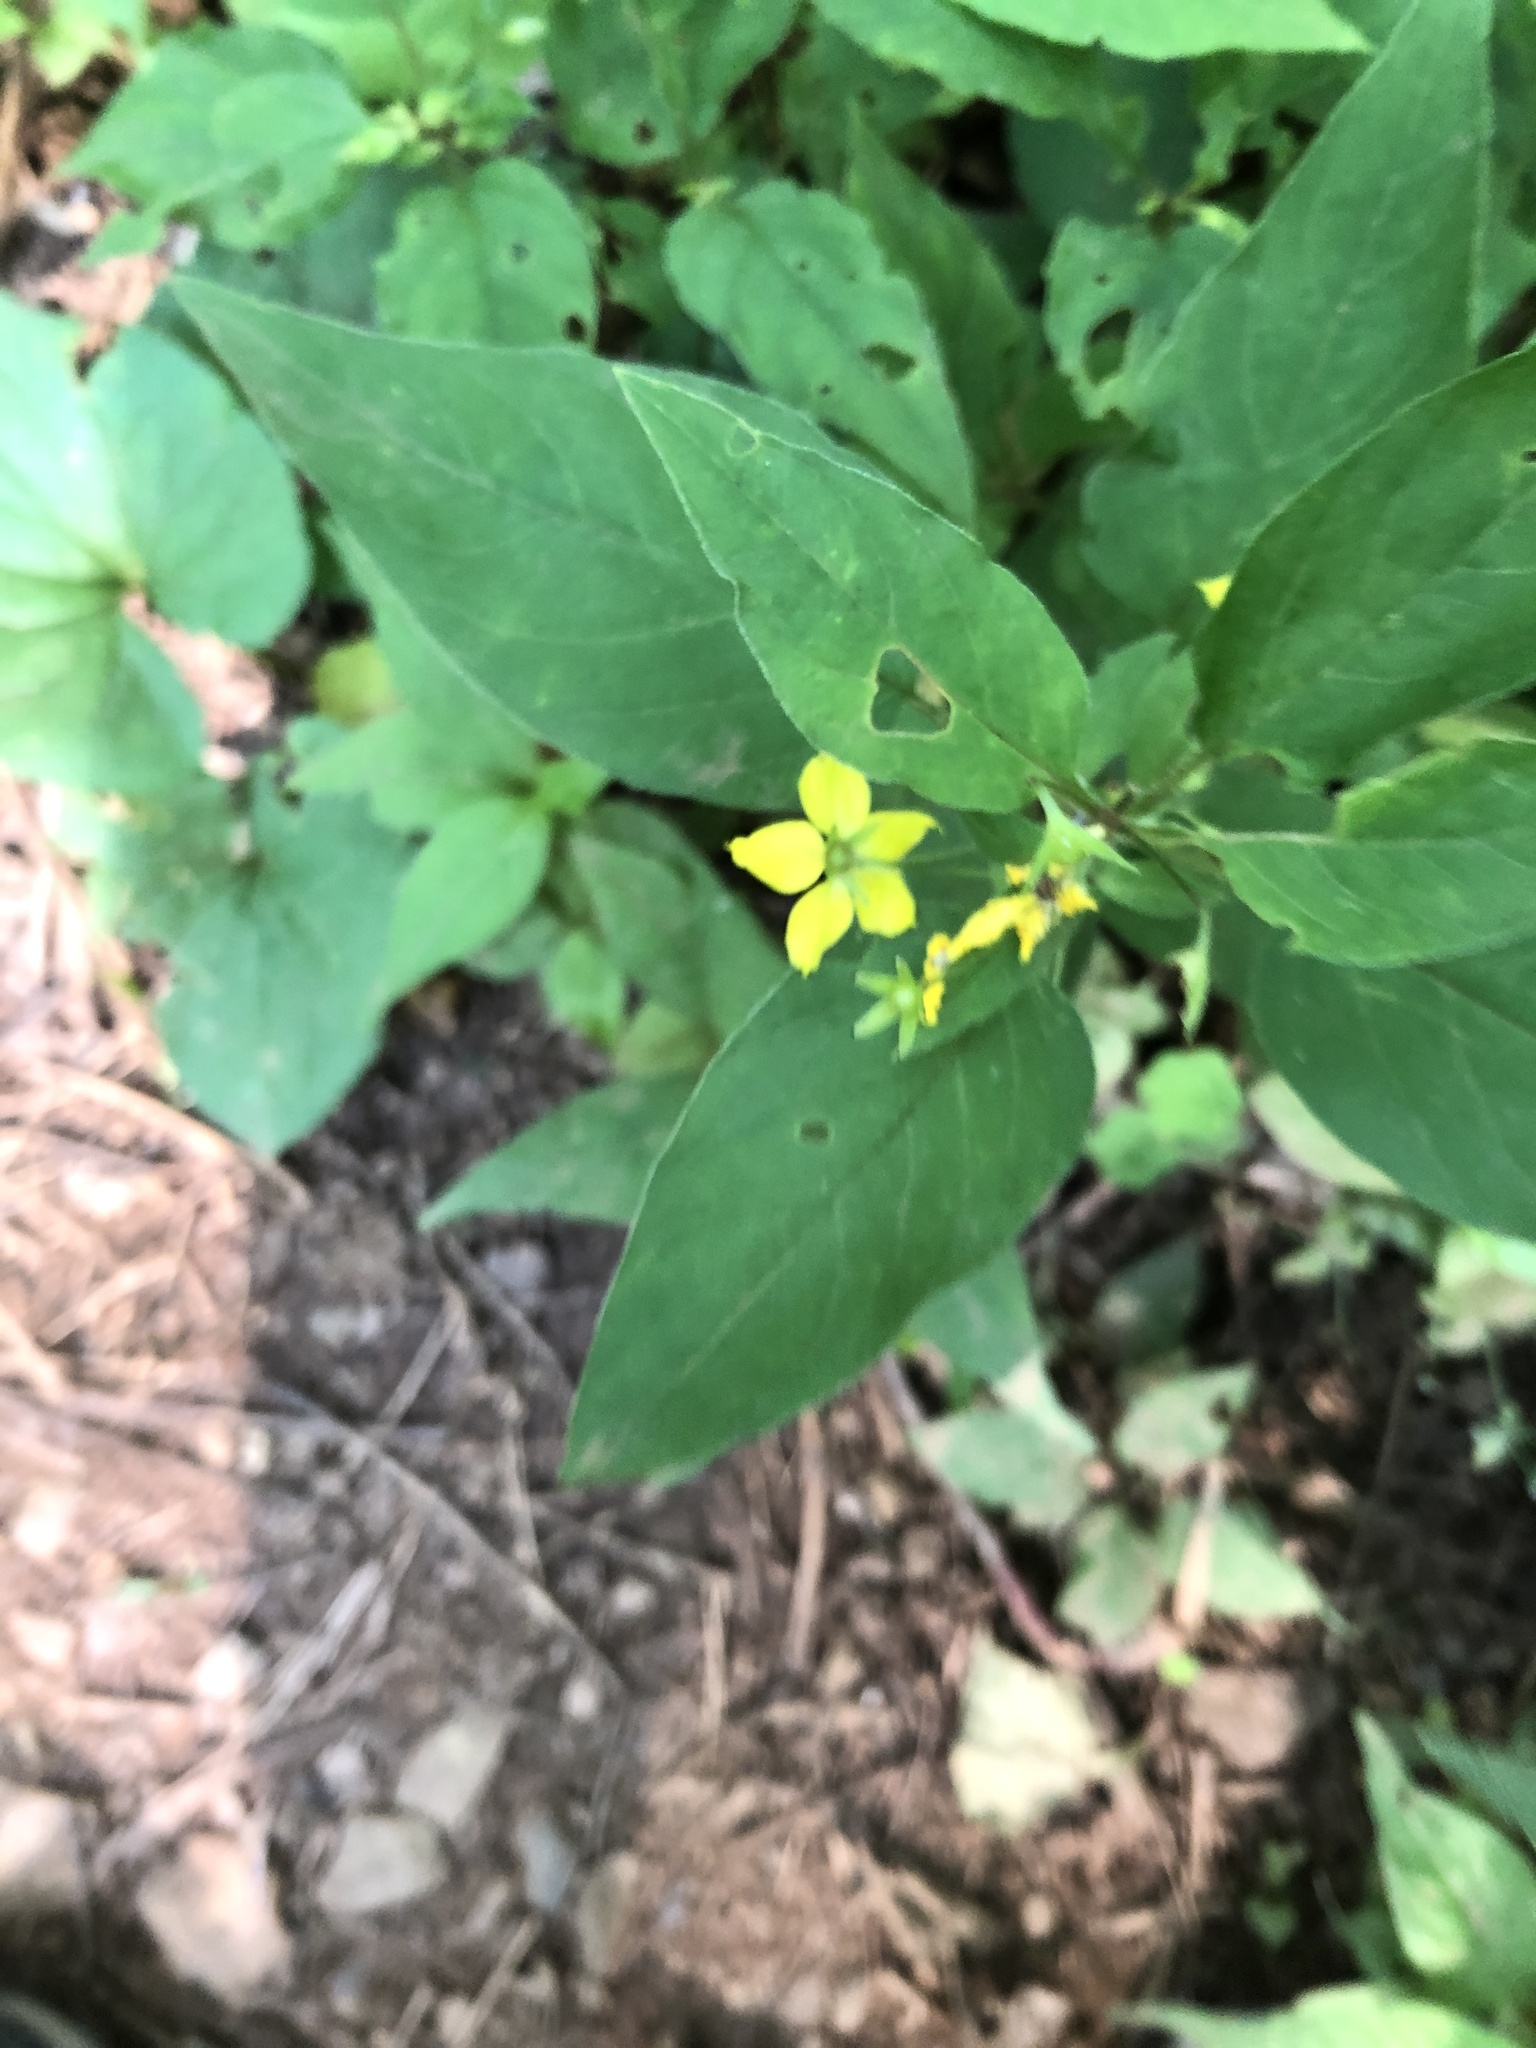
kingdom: Plantae
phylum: Tracheophyta
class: Magnoliopsida
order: Ericales
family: Primulaceae
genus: Lysimachia
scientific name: Lysimachia ciliata
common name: Fringed loosestrife
